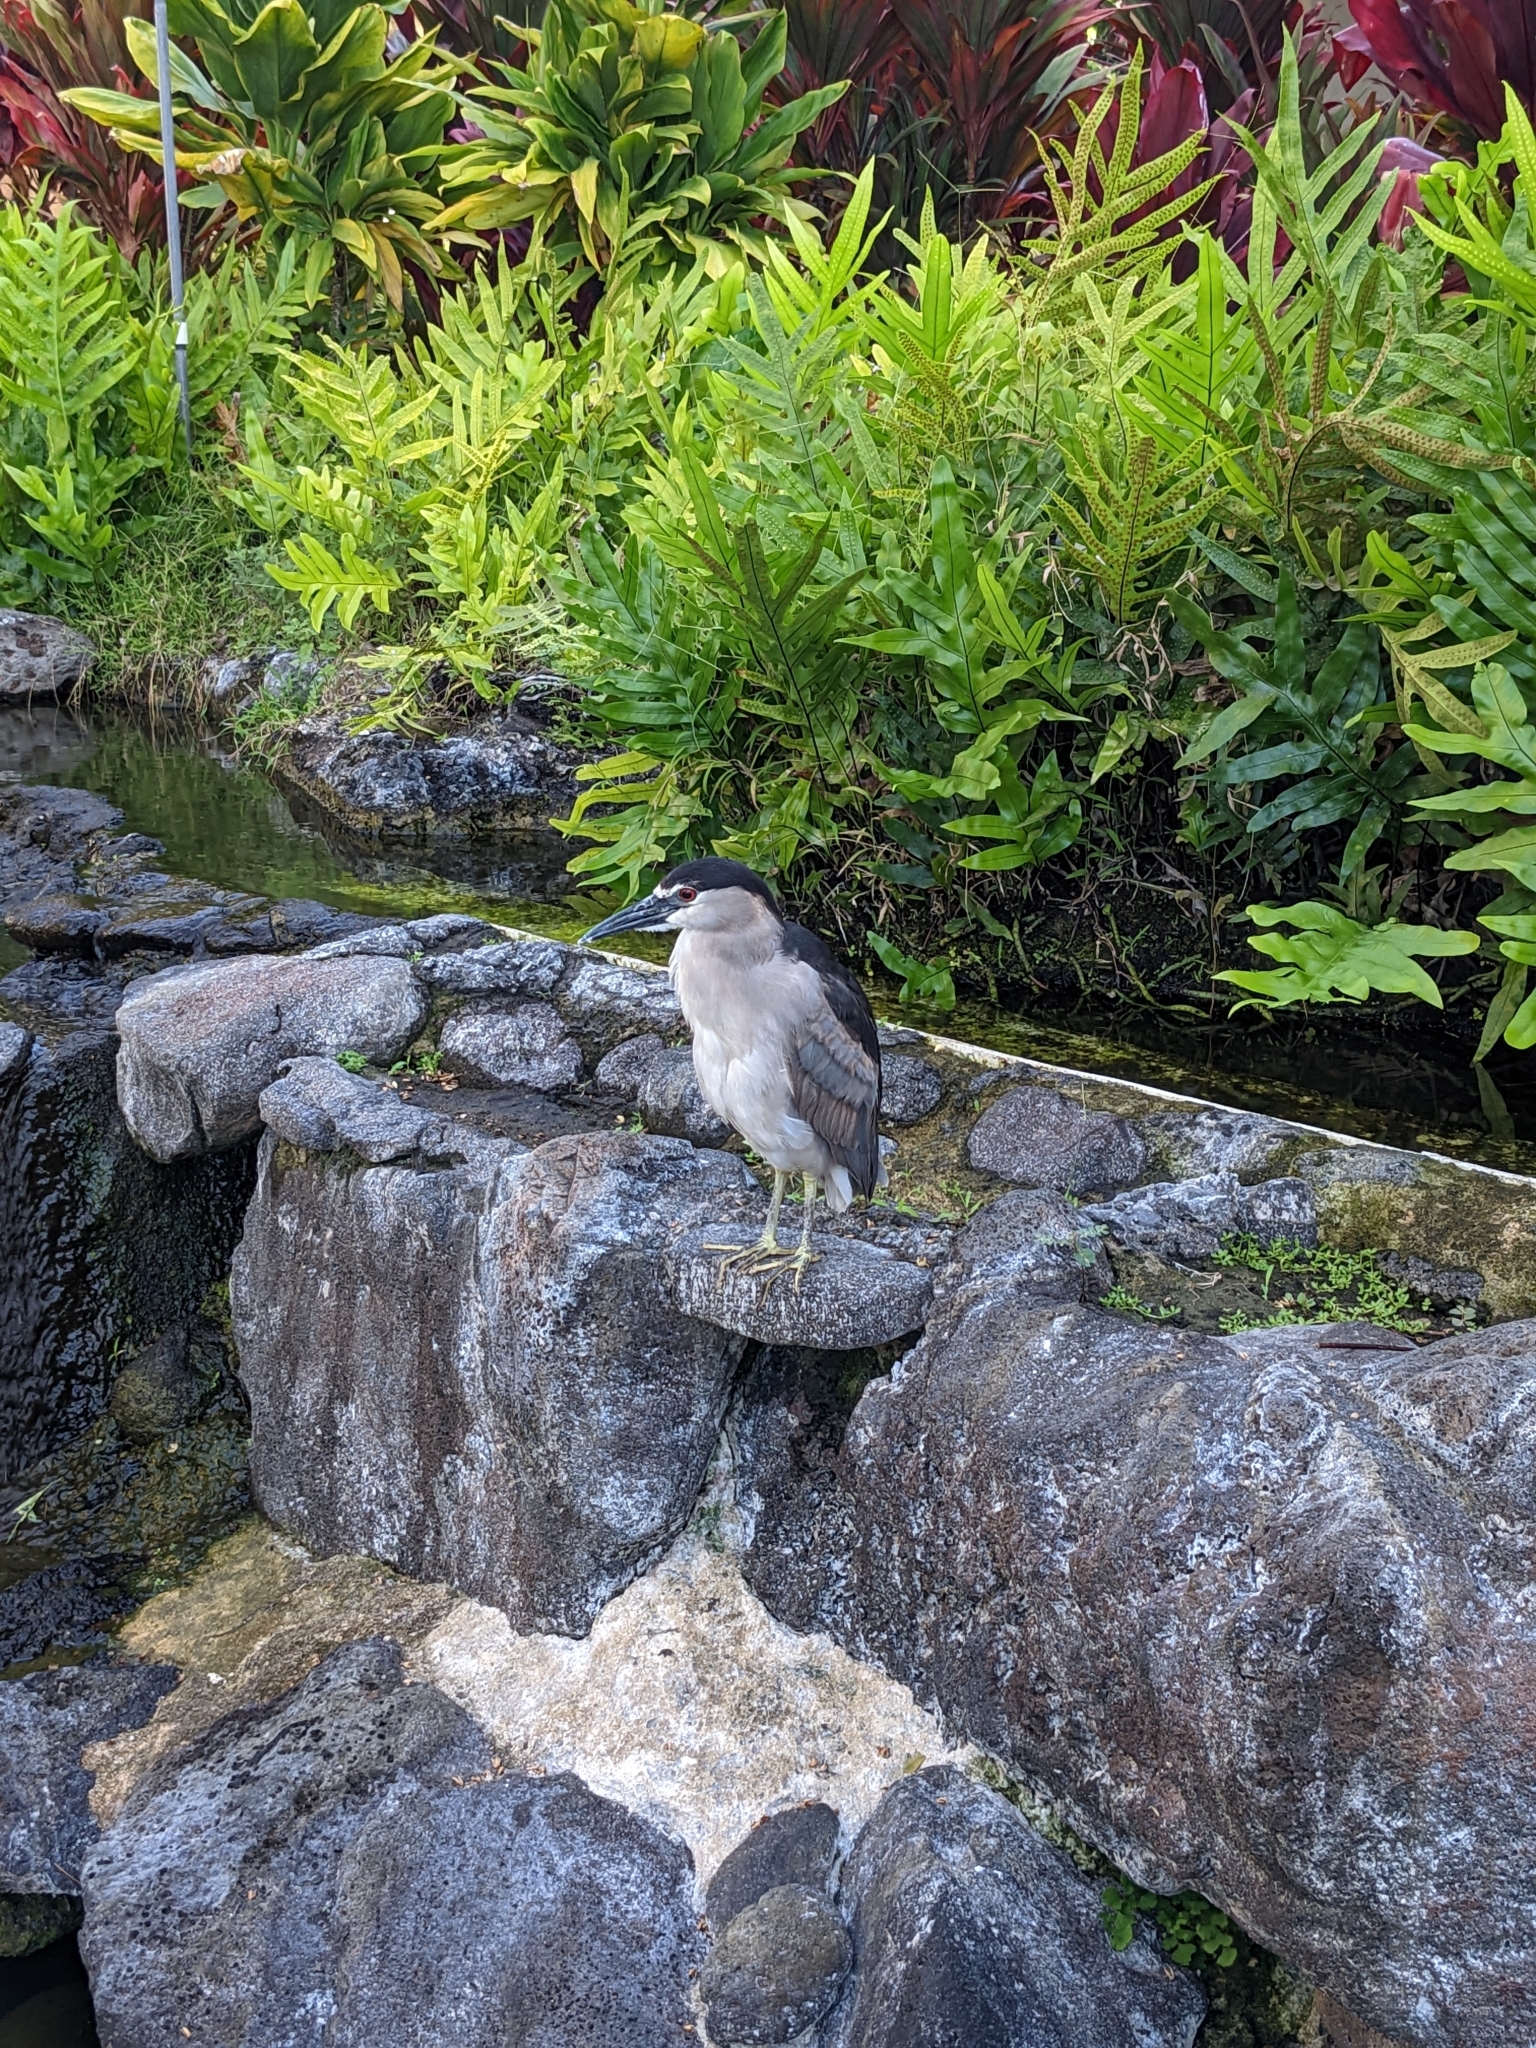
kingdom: Animalia
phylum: Chordata
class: Aves
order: Pelecaniformes
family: Ardeidae
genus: Nycticorax
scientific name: Nycticorax nycticorax
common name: Black-crowned night heron
